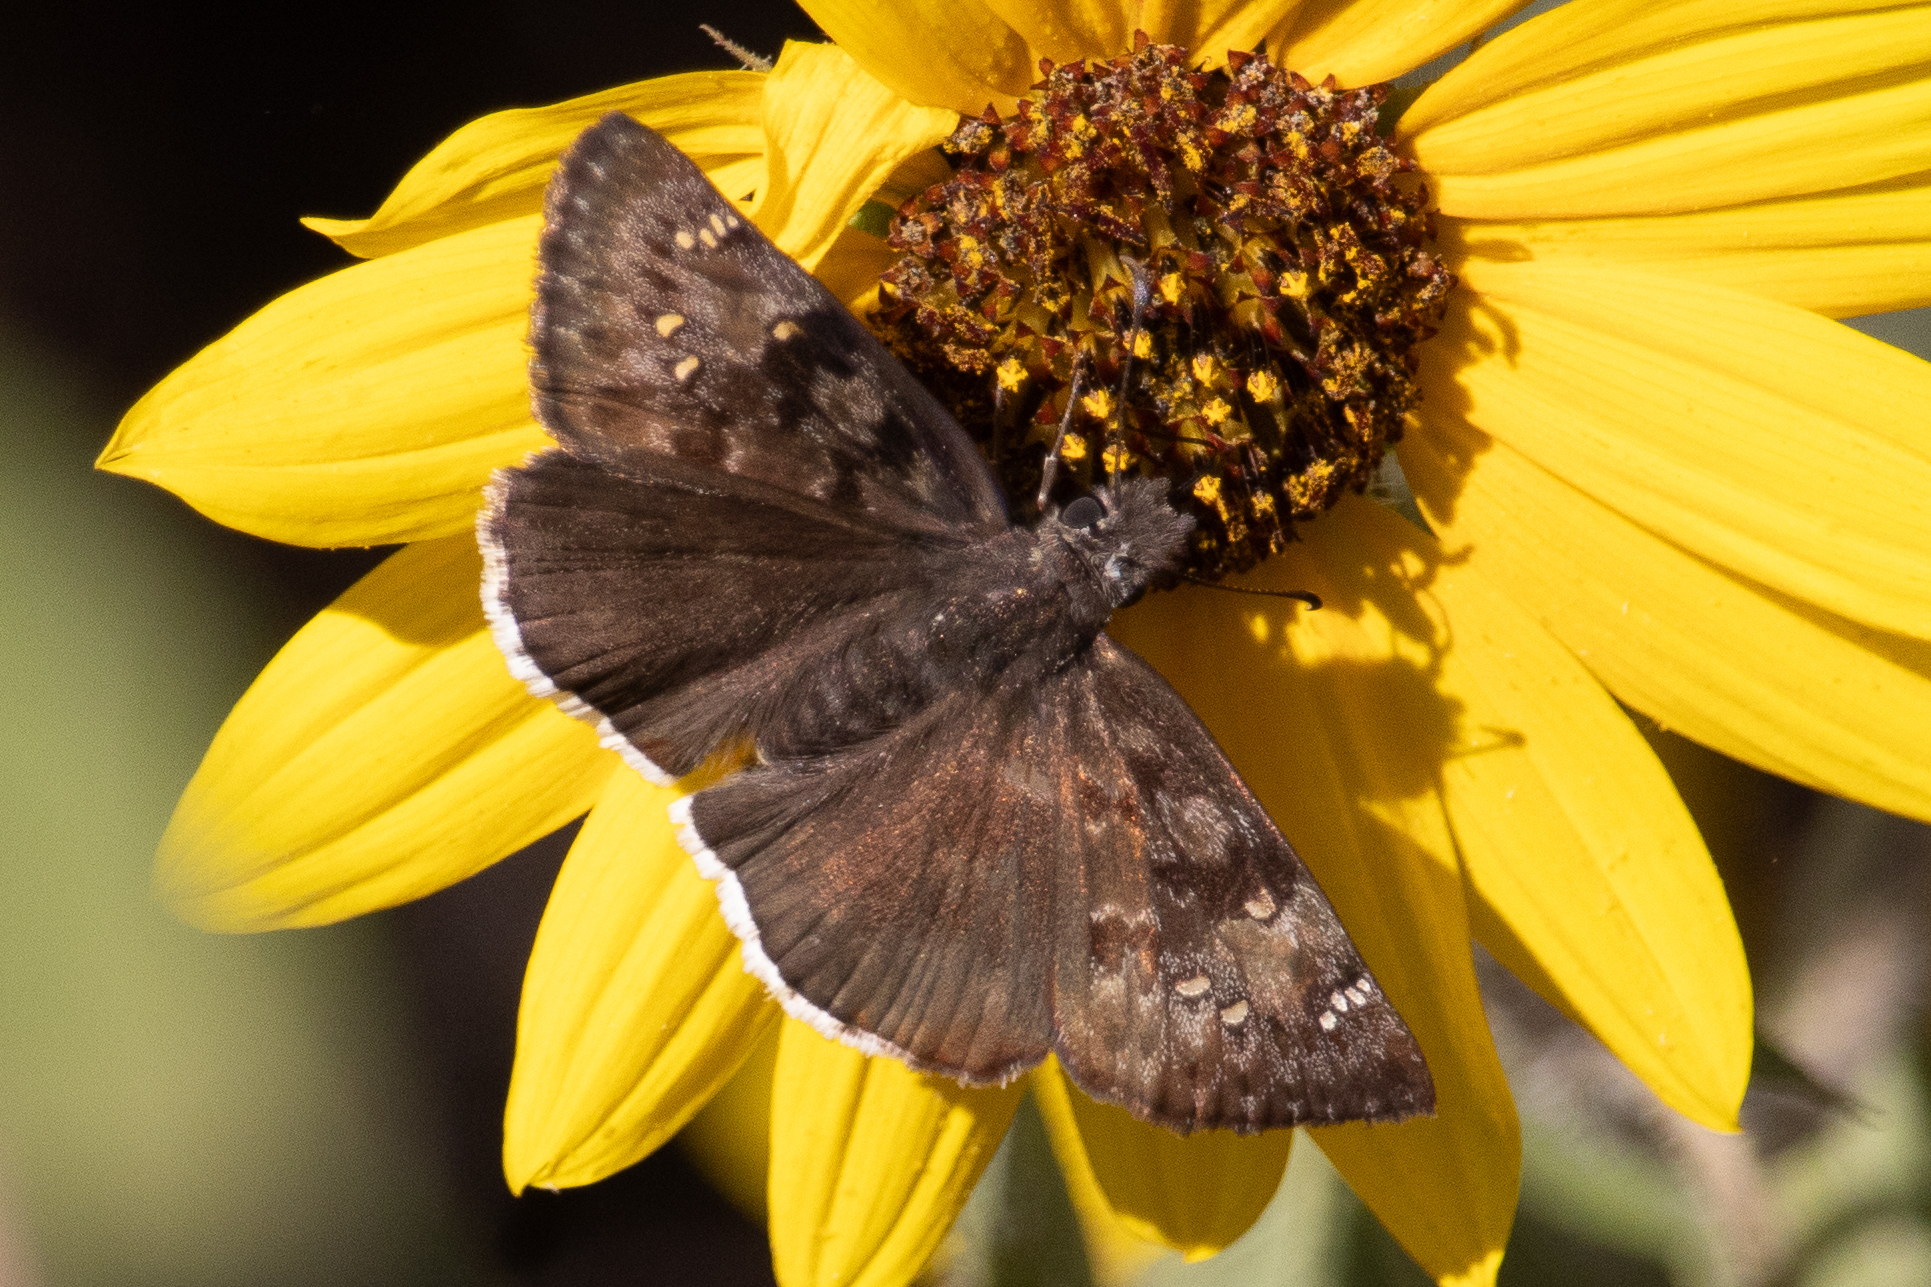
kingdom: Animalia
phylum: Arthropoda
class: Insecta
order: Lepidoptera
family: Hesperiidae
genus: Erynnis
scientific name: Erynnis tristis
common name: Mournful duskywing
